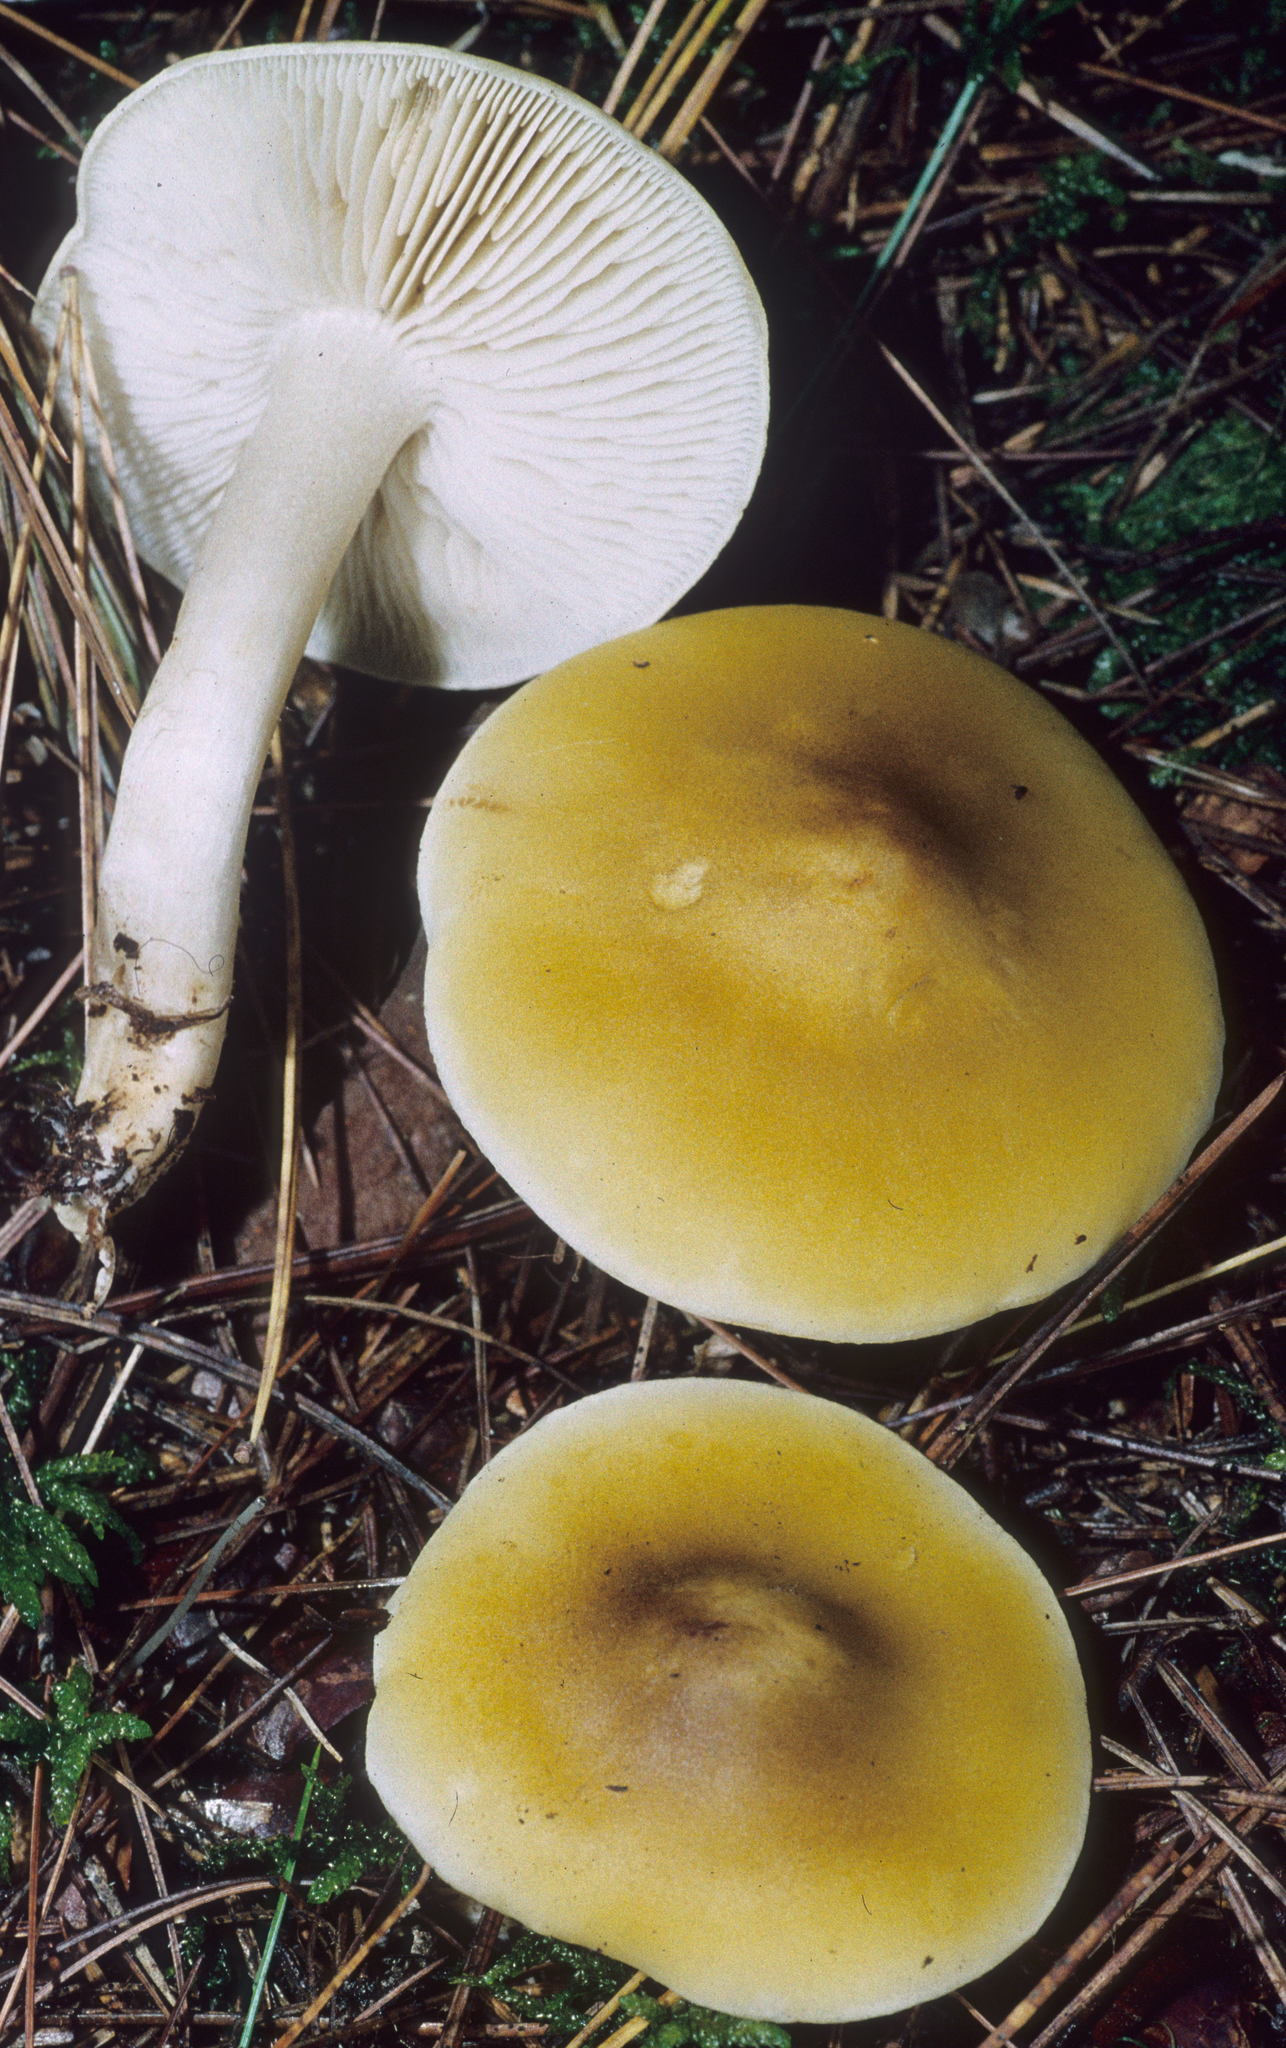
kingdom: Fungi
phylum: Basidiomycota
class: Agaricomycetes
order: Agaricales
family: Tricholomataceae
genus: Melanoleuca
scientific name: Melanoleuca fumosolutea
